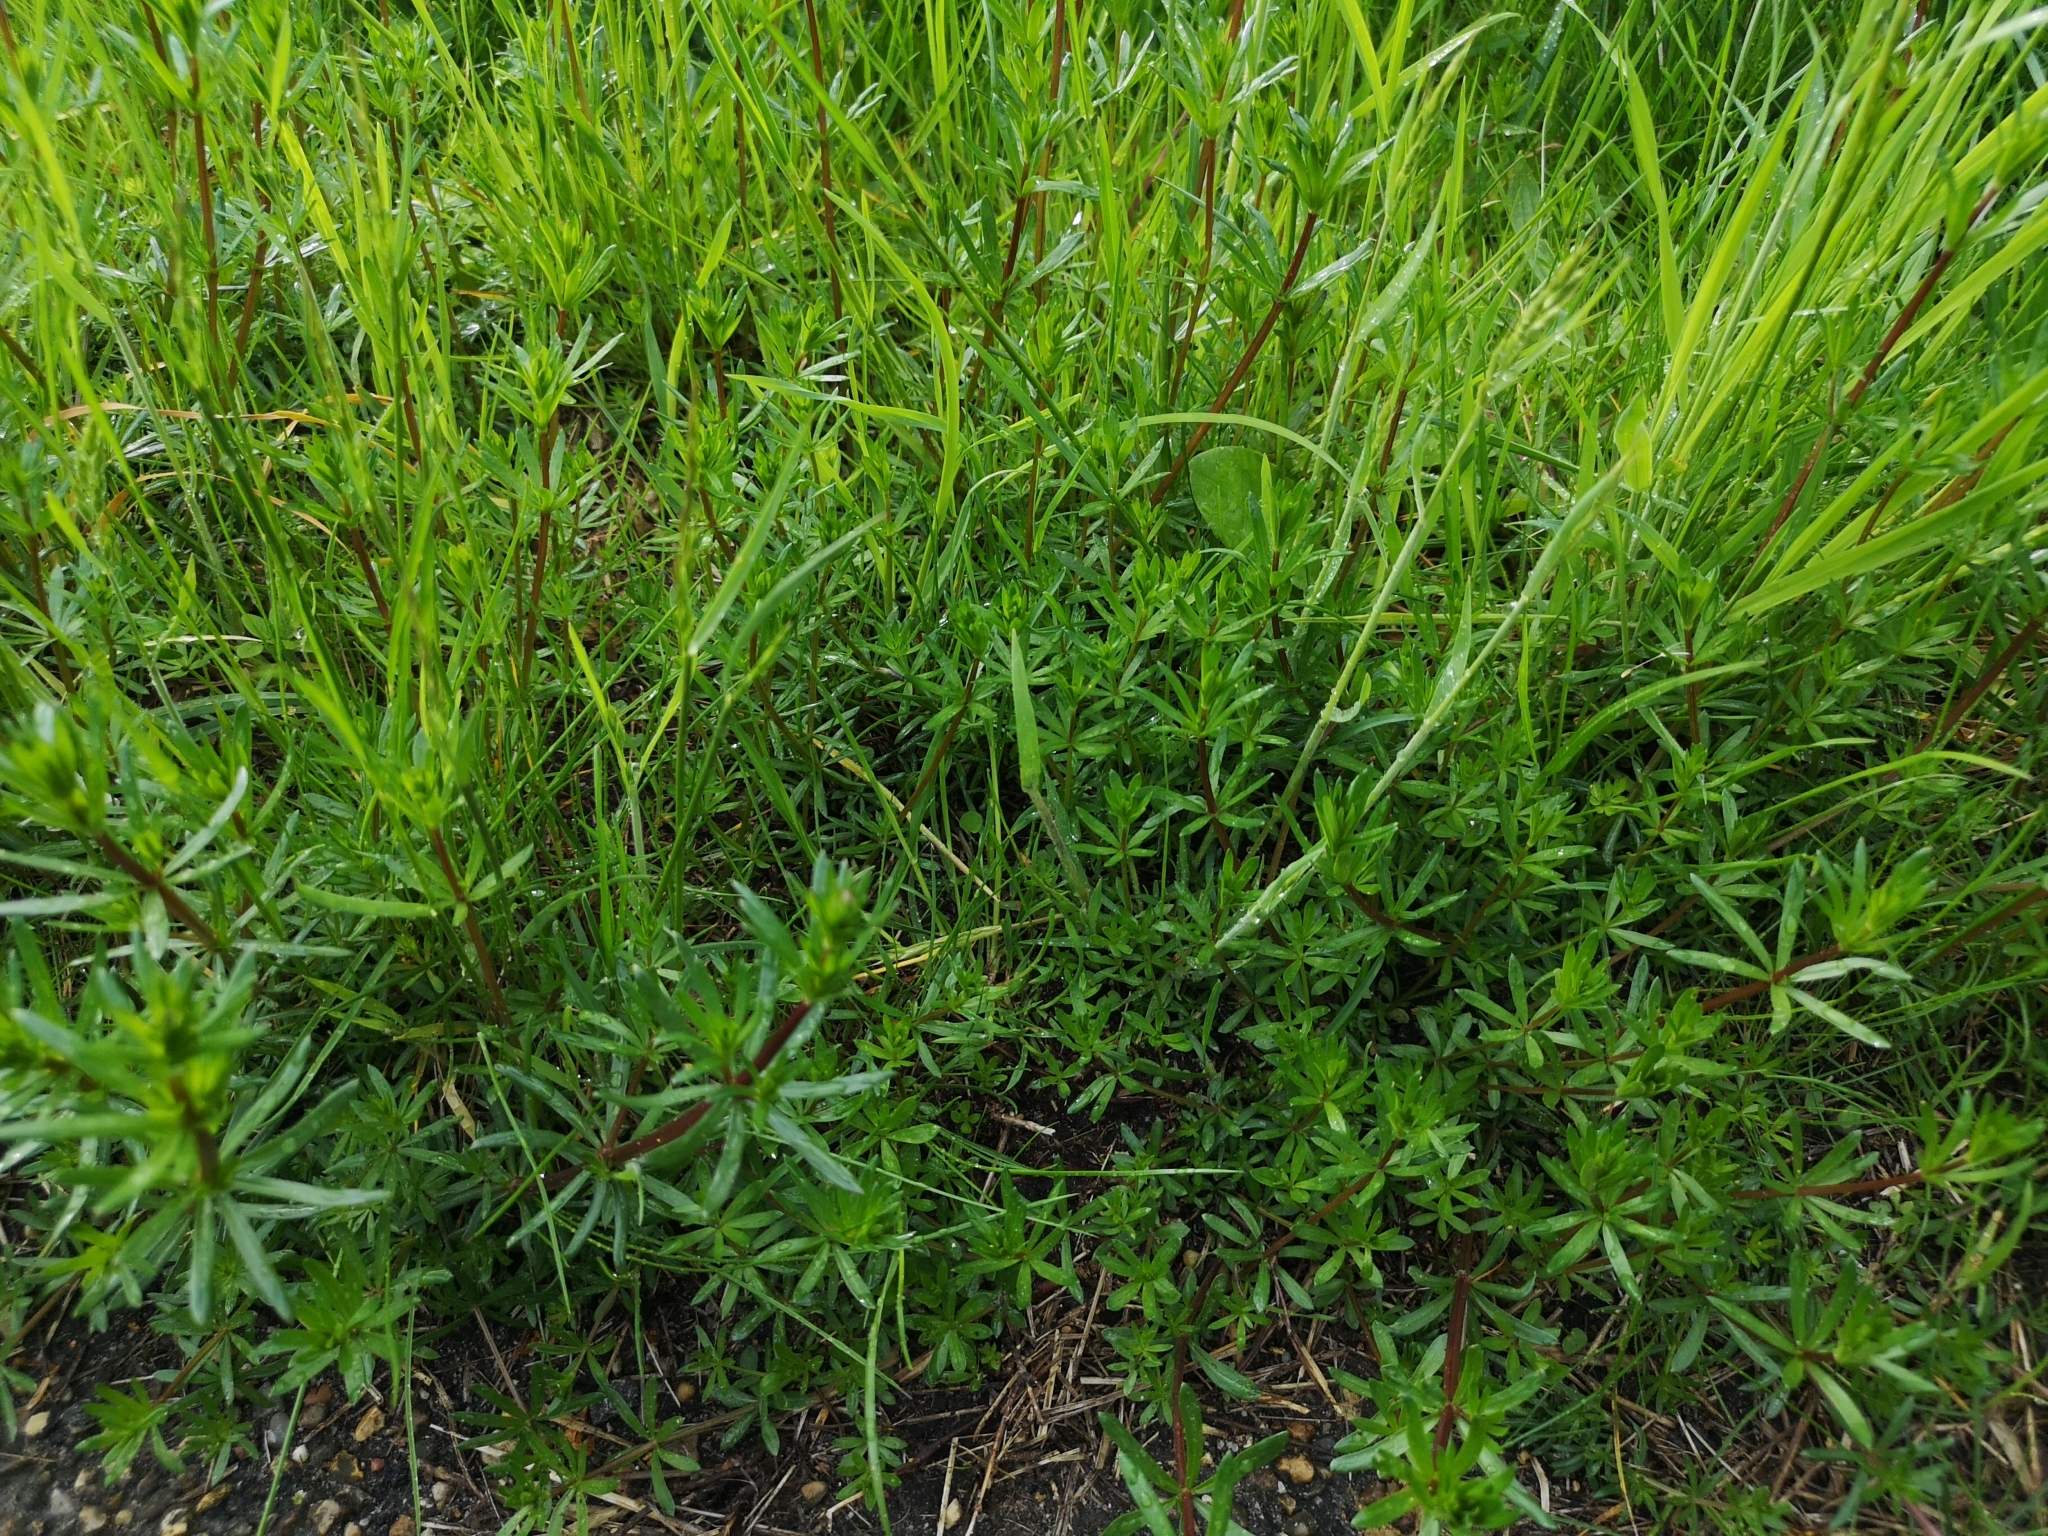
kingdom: Plantae
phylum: Tracheophyta
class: Magnoliopsida
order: Gentianales
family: Rubiaceae
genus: Galium
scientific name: Galium mollugo
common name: Hedge bedstraw
